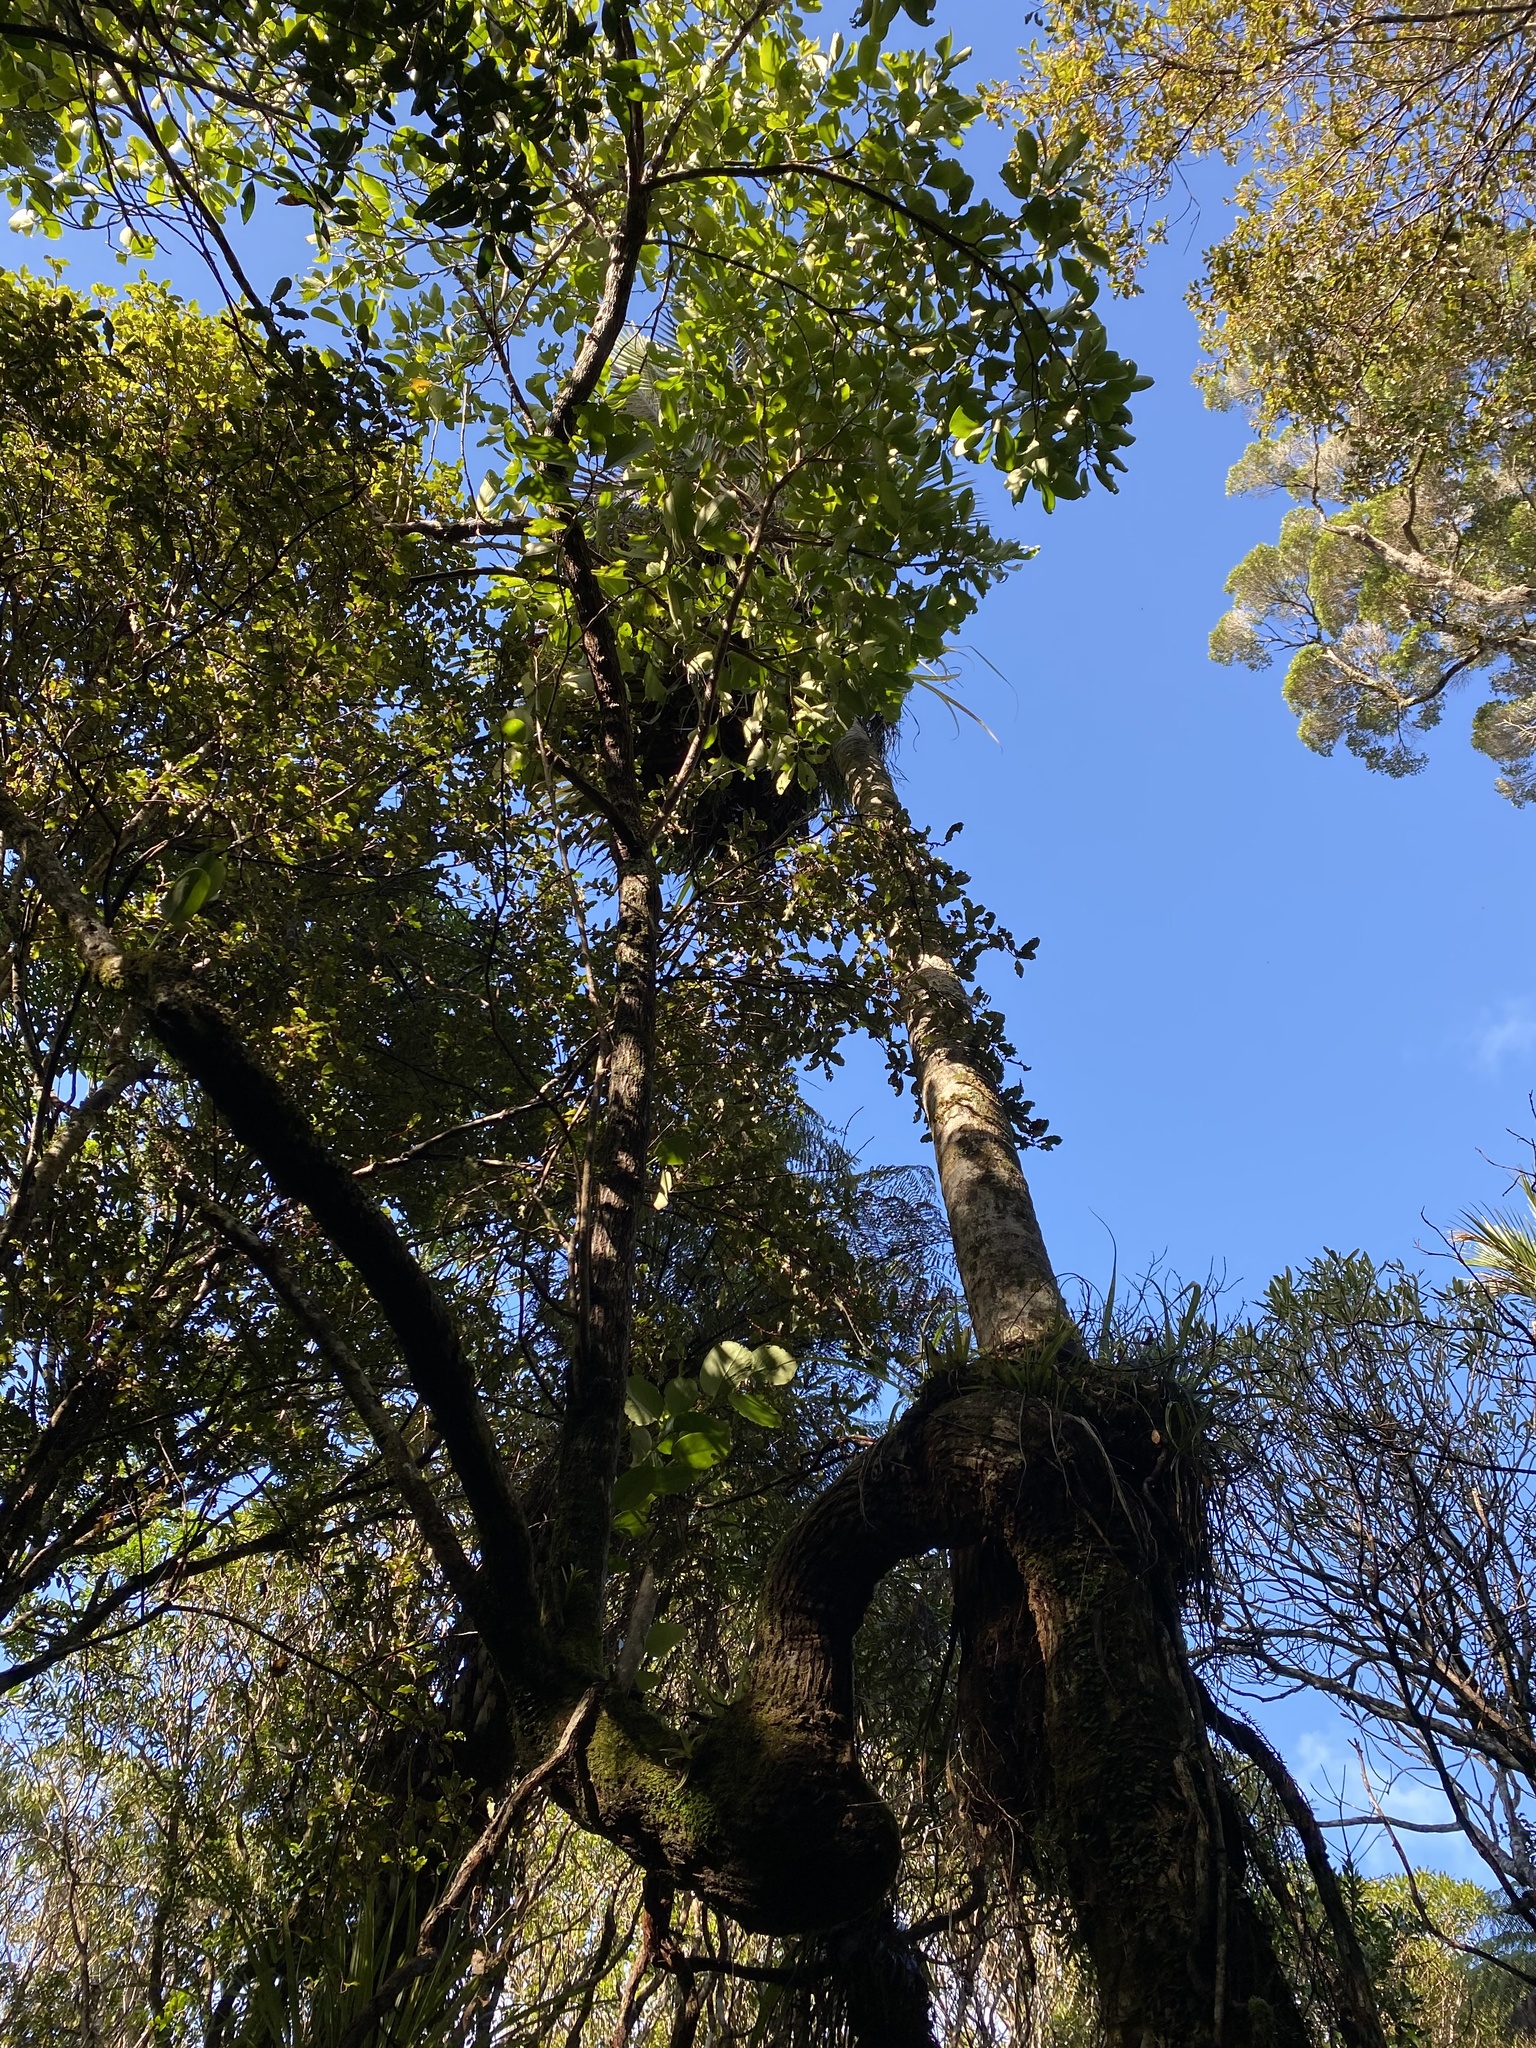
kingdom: Plantae
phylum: Tracheophyta
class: Magnoliopsida
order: Apiales
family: Griseliniaceae
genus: Griselinia
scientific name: Griselinia lucida
